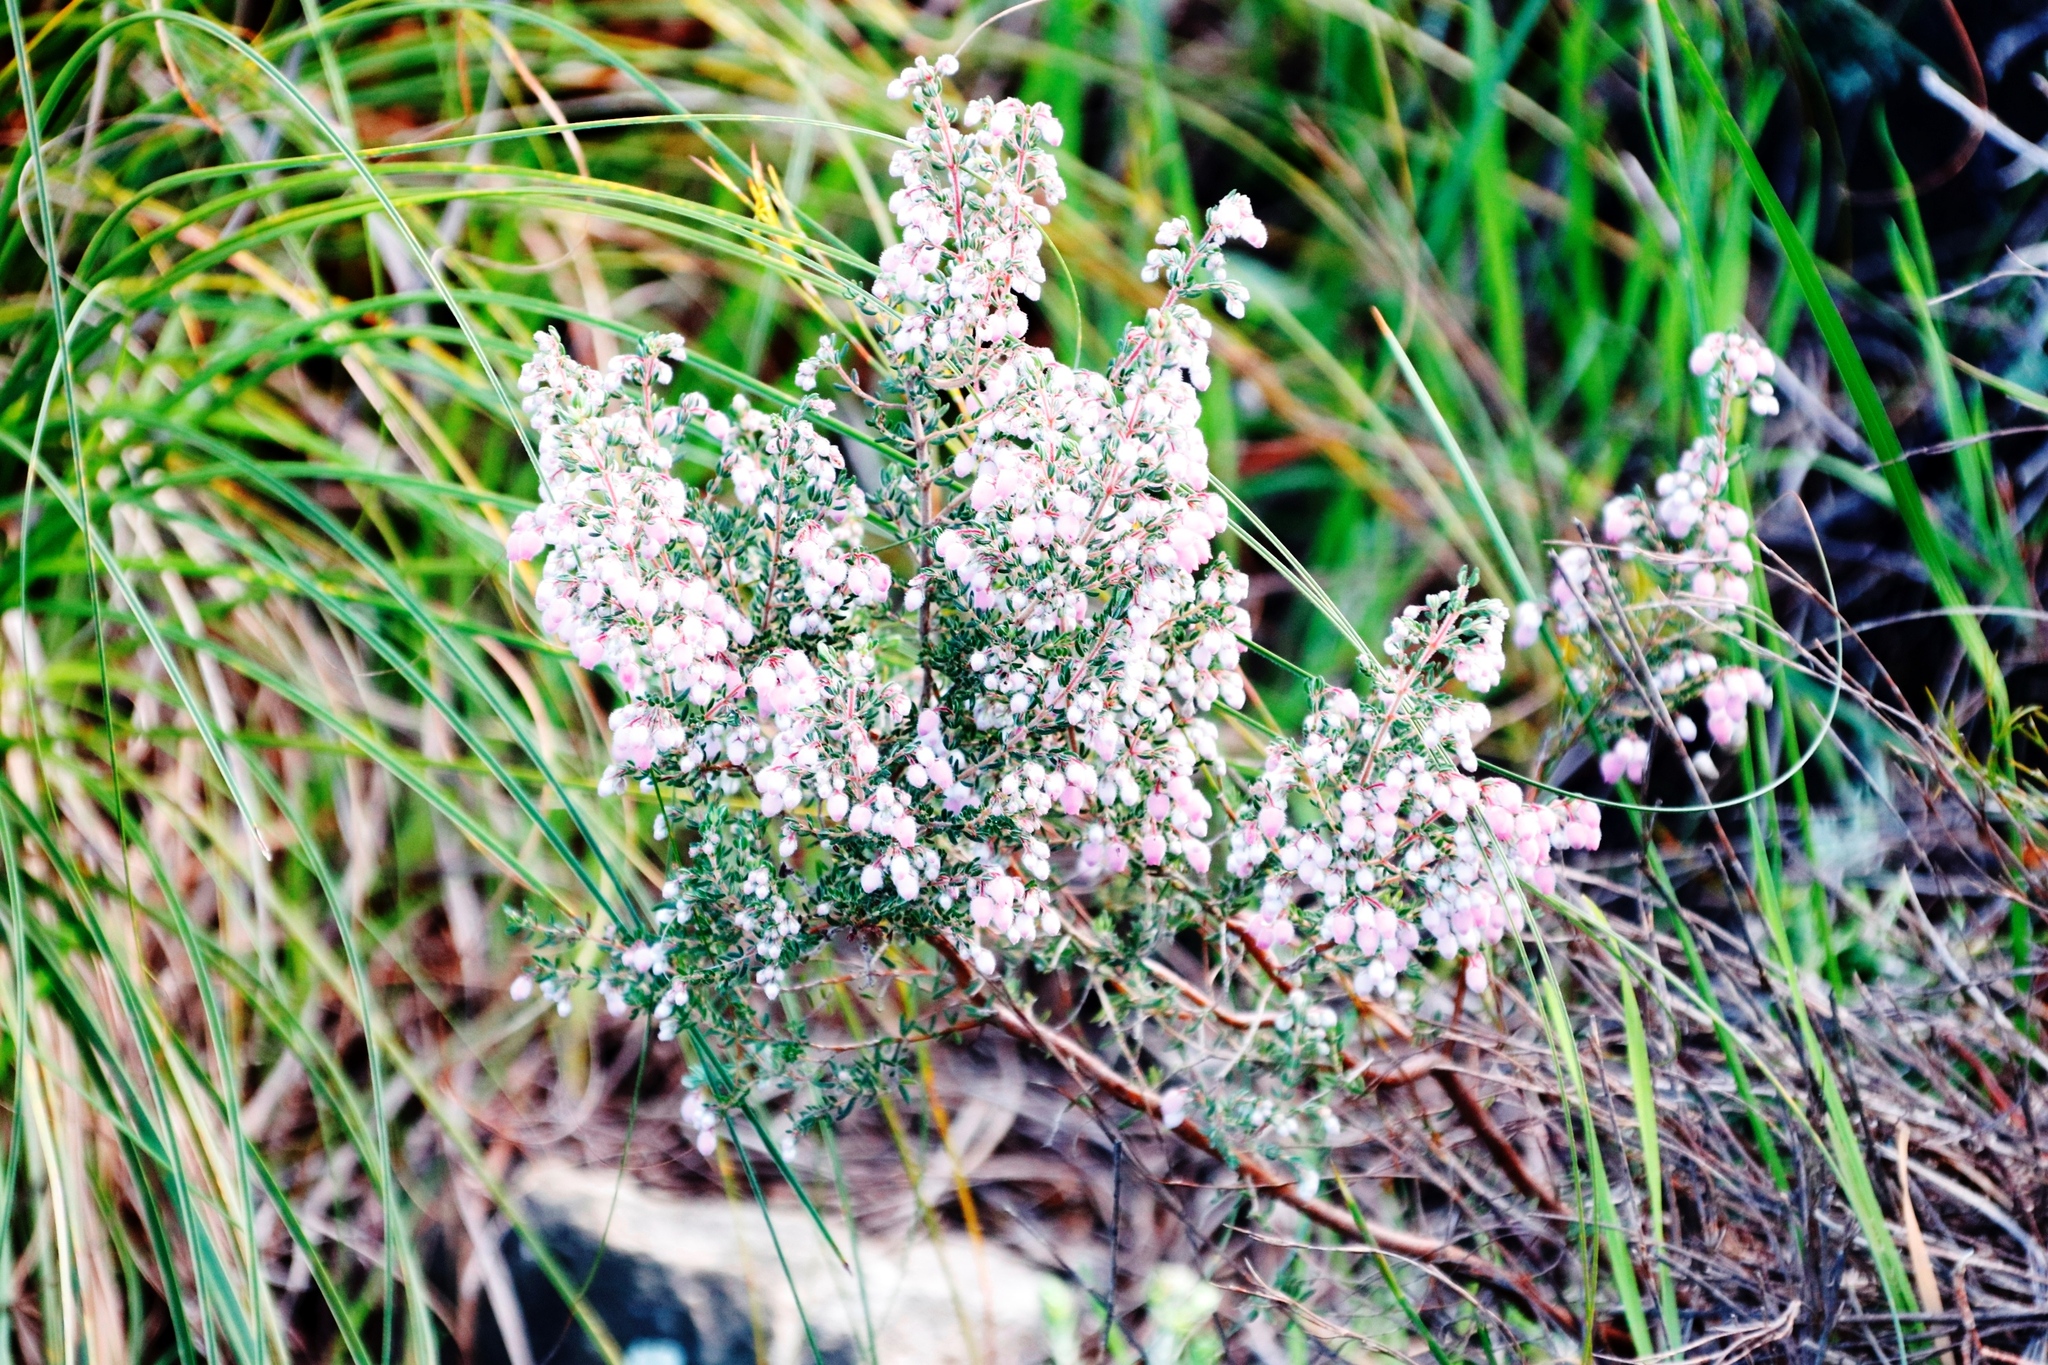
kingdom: Plantae
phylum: Tracheophyta
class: Magnoliopsida
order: Ericales
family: Ericaceae
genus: Erica
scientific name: Erica hirtiflora
